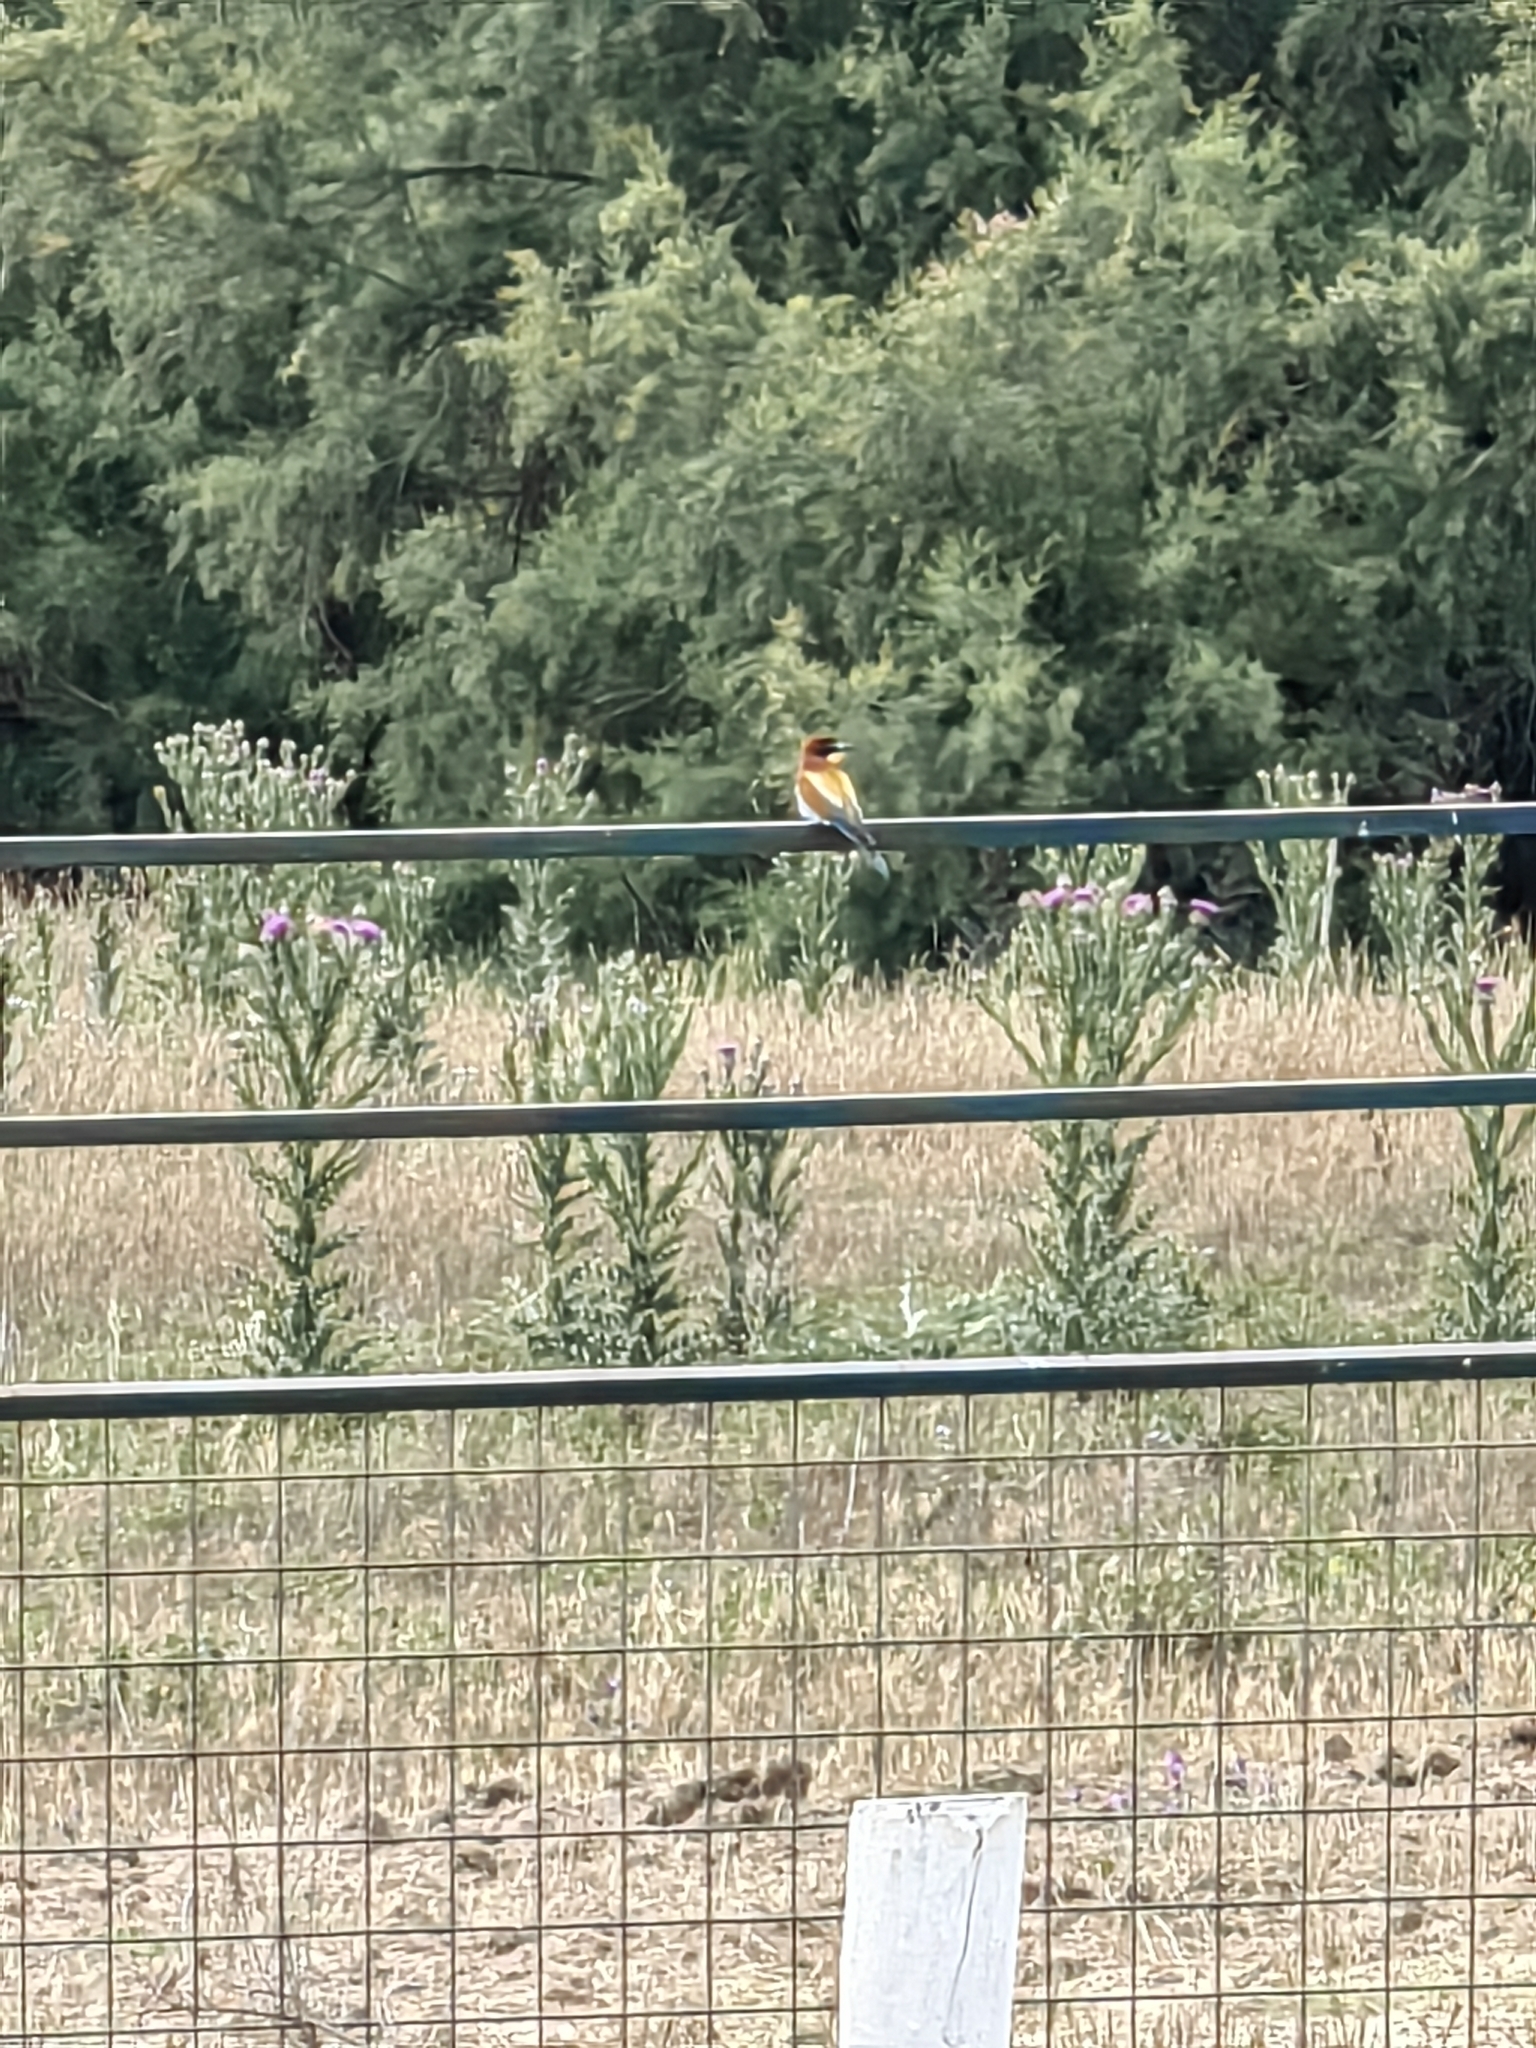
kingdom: Animalia
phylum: Chordata
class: Aves
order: Coraciiformes
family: Meropidae
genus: Merops
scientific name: Merops apiaster
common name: European bee-eater
